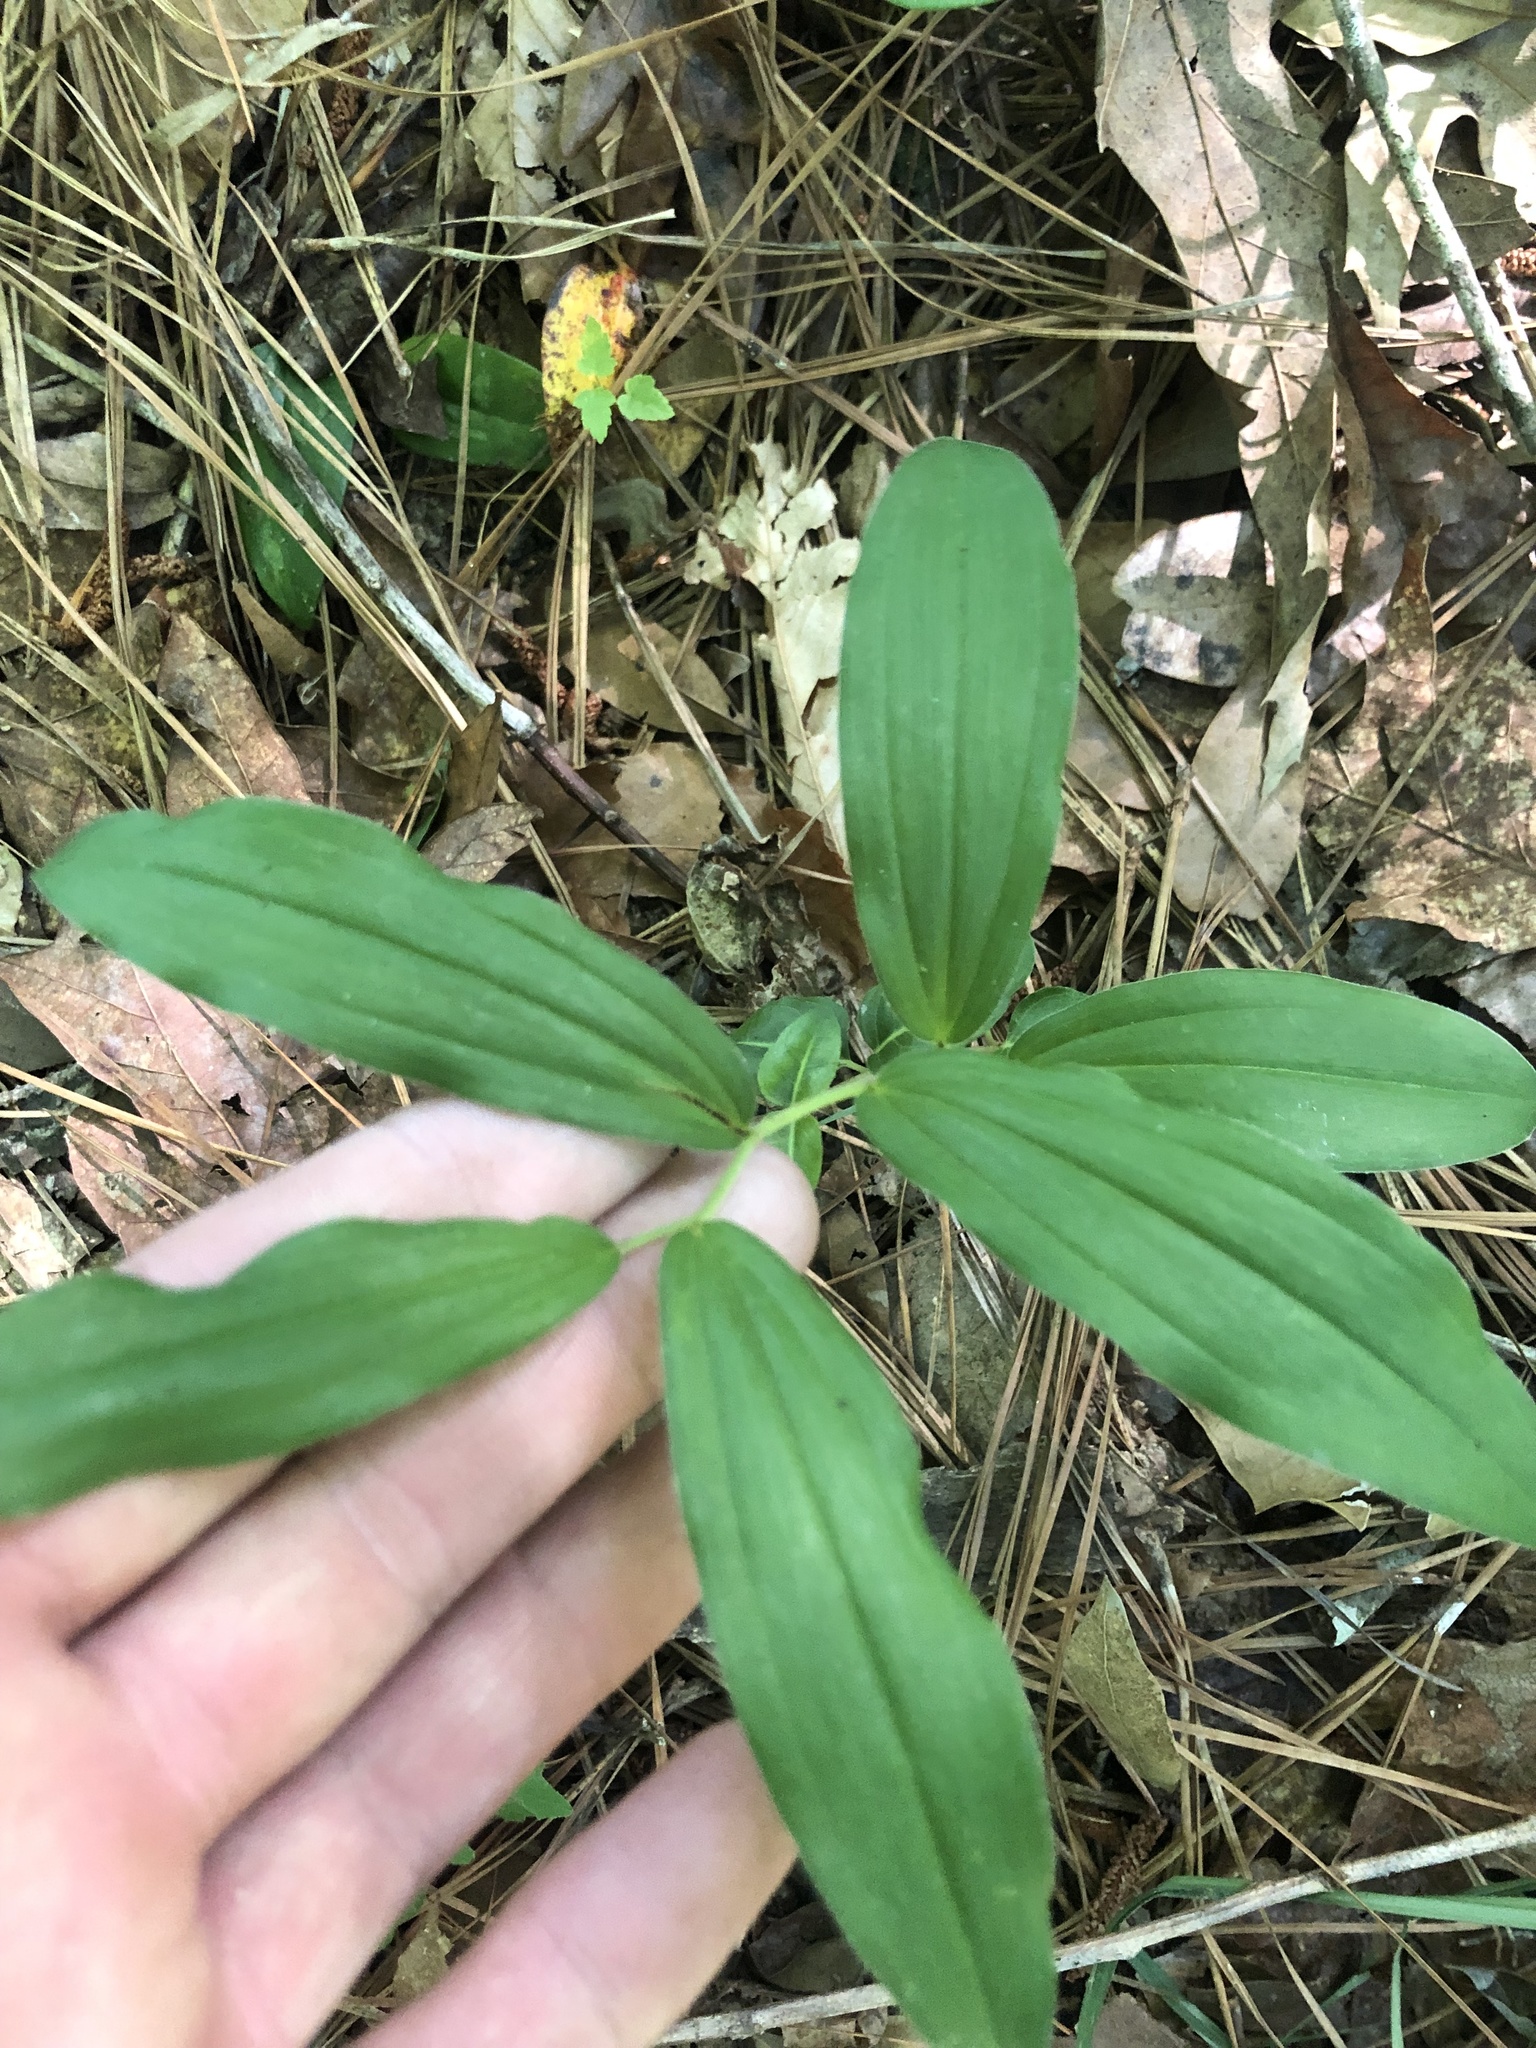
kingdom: Plantae
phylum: Tracheophyta
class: Liliopsida
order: Asparagales
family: Asparagaceae
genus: Maianthemum
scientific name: Maianthemum racemosum
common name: False spikenard
